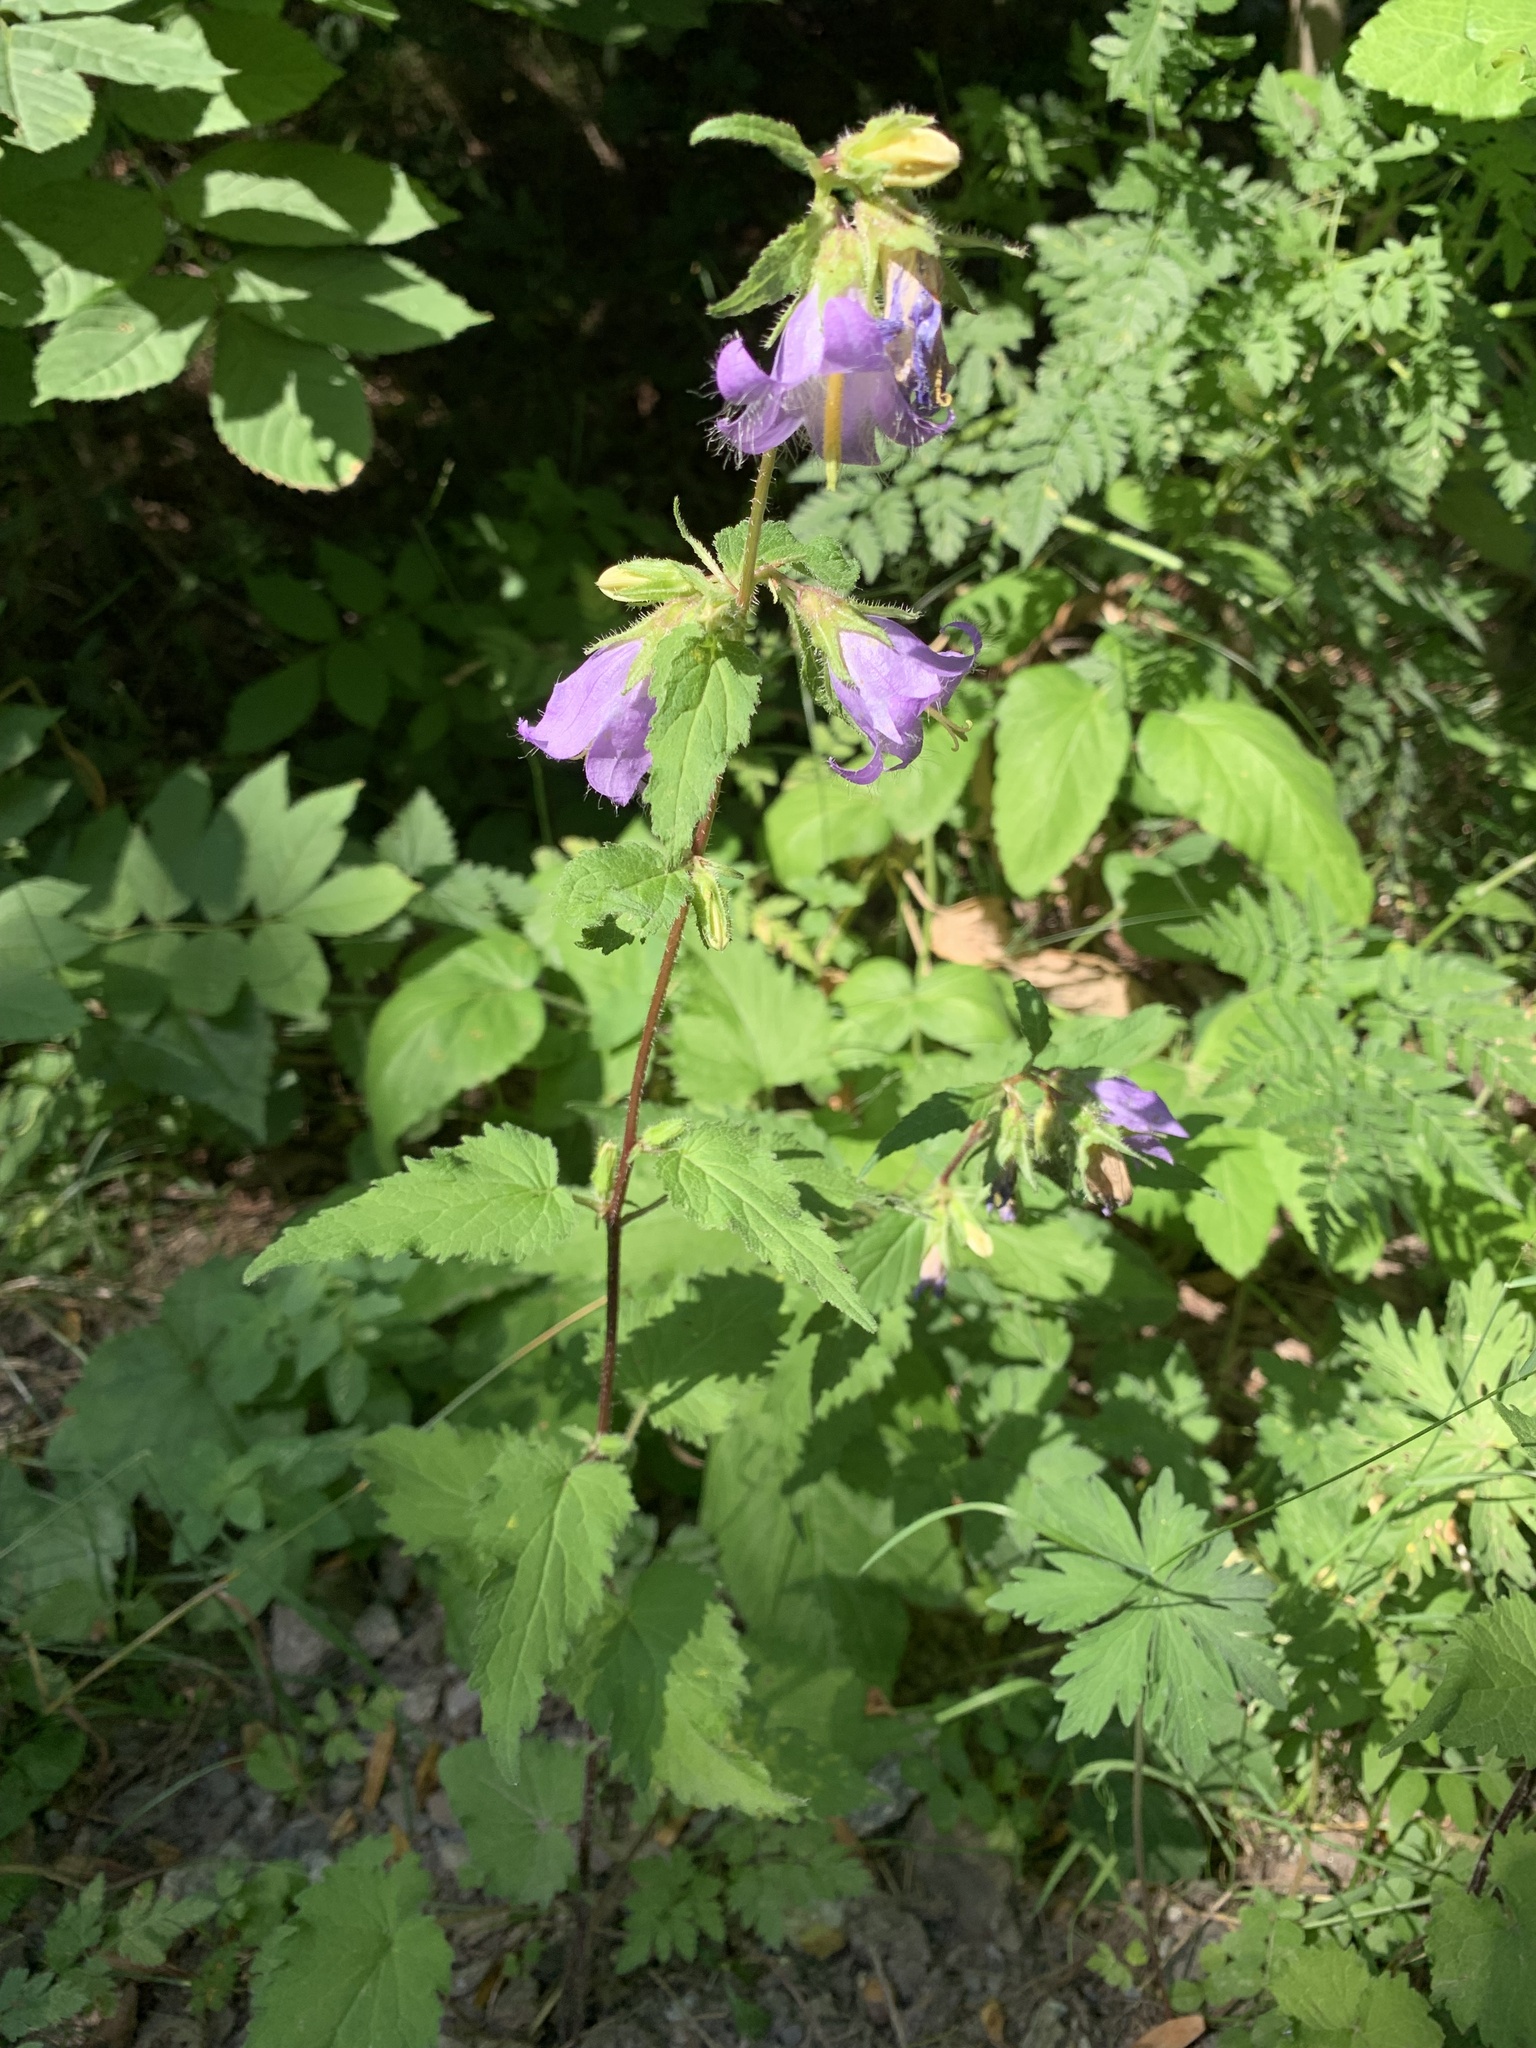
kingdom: Plantae
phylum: Tracheophyta
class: Magnoliopsida
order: Asterales
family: Campanulaceae
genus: Campanula
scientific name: Campanula trachelium
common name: Nettle-leaved bellflower
